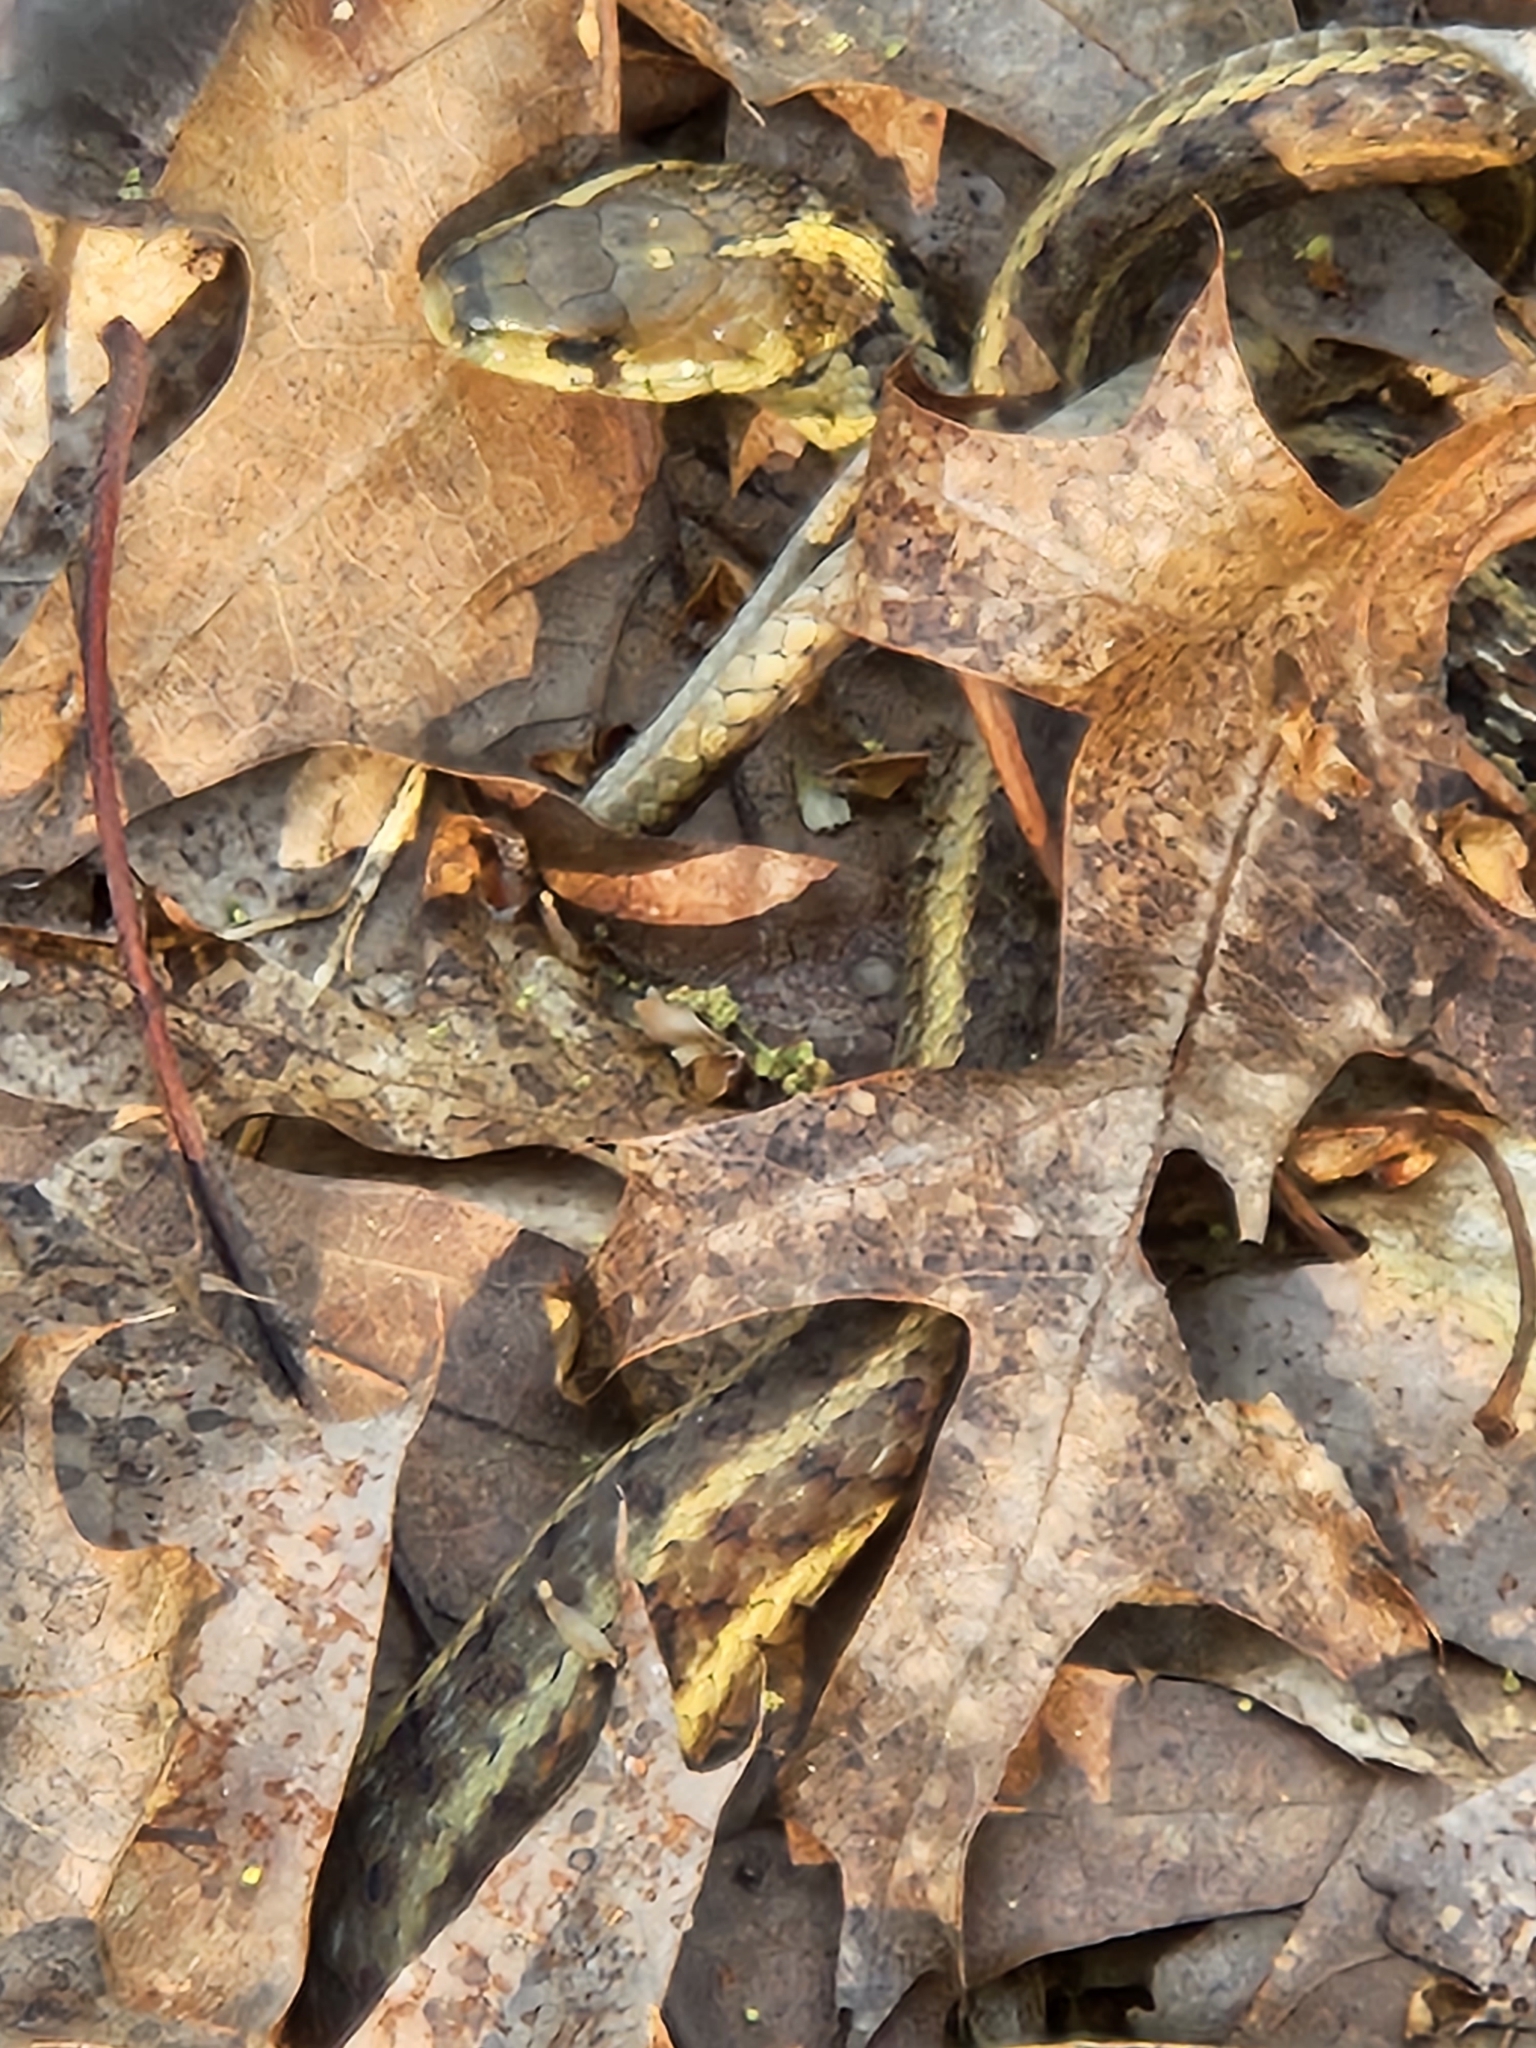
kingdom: Animalia
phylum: Chordata
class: Squamata
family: Colubridae
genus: Thamnophis
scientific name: Thamnophis sirtalis
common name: Common garter snake
